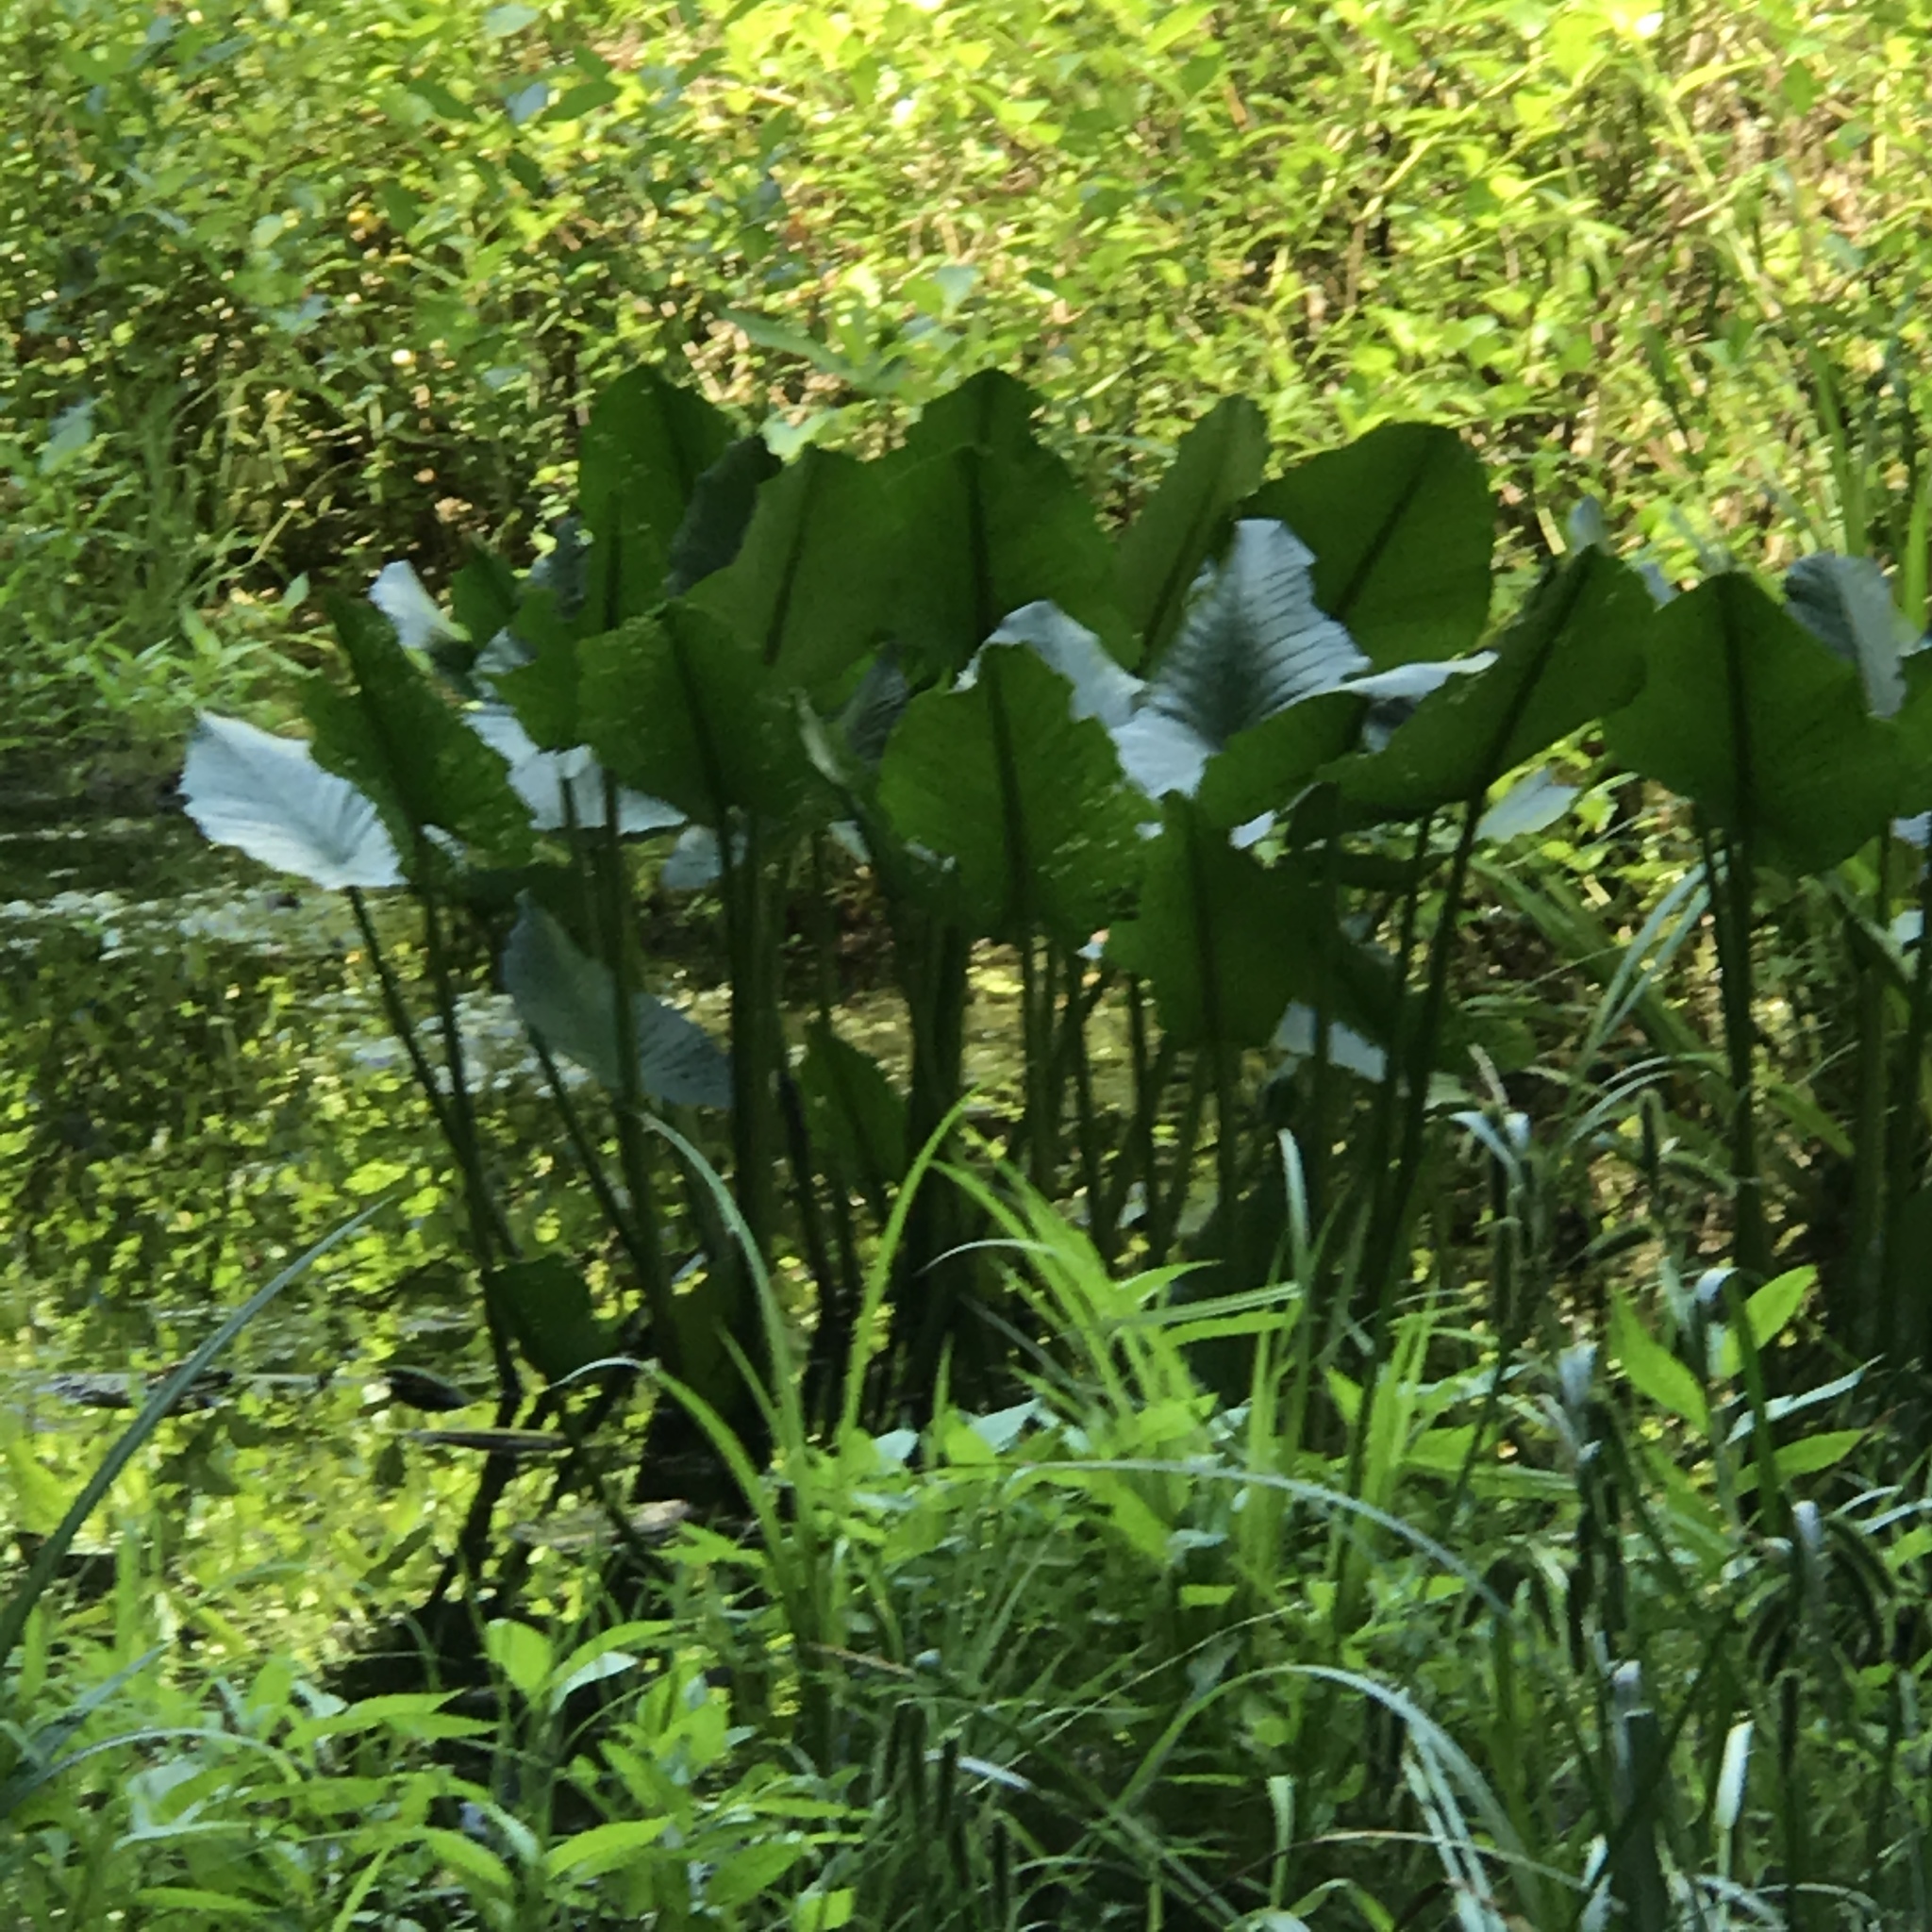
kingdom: Plantae
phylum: Tracheophyta
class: Magnoliopsida
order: Nymphaeales
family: Nymphaeaceae
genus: Nuphar
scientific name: Nuphar advena
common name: Spatter-dock
